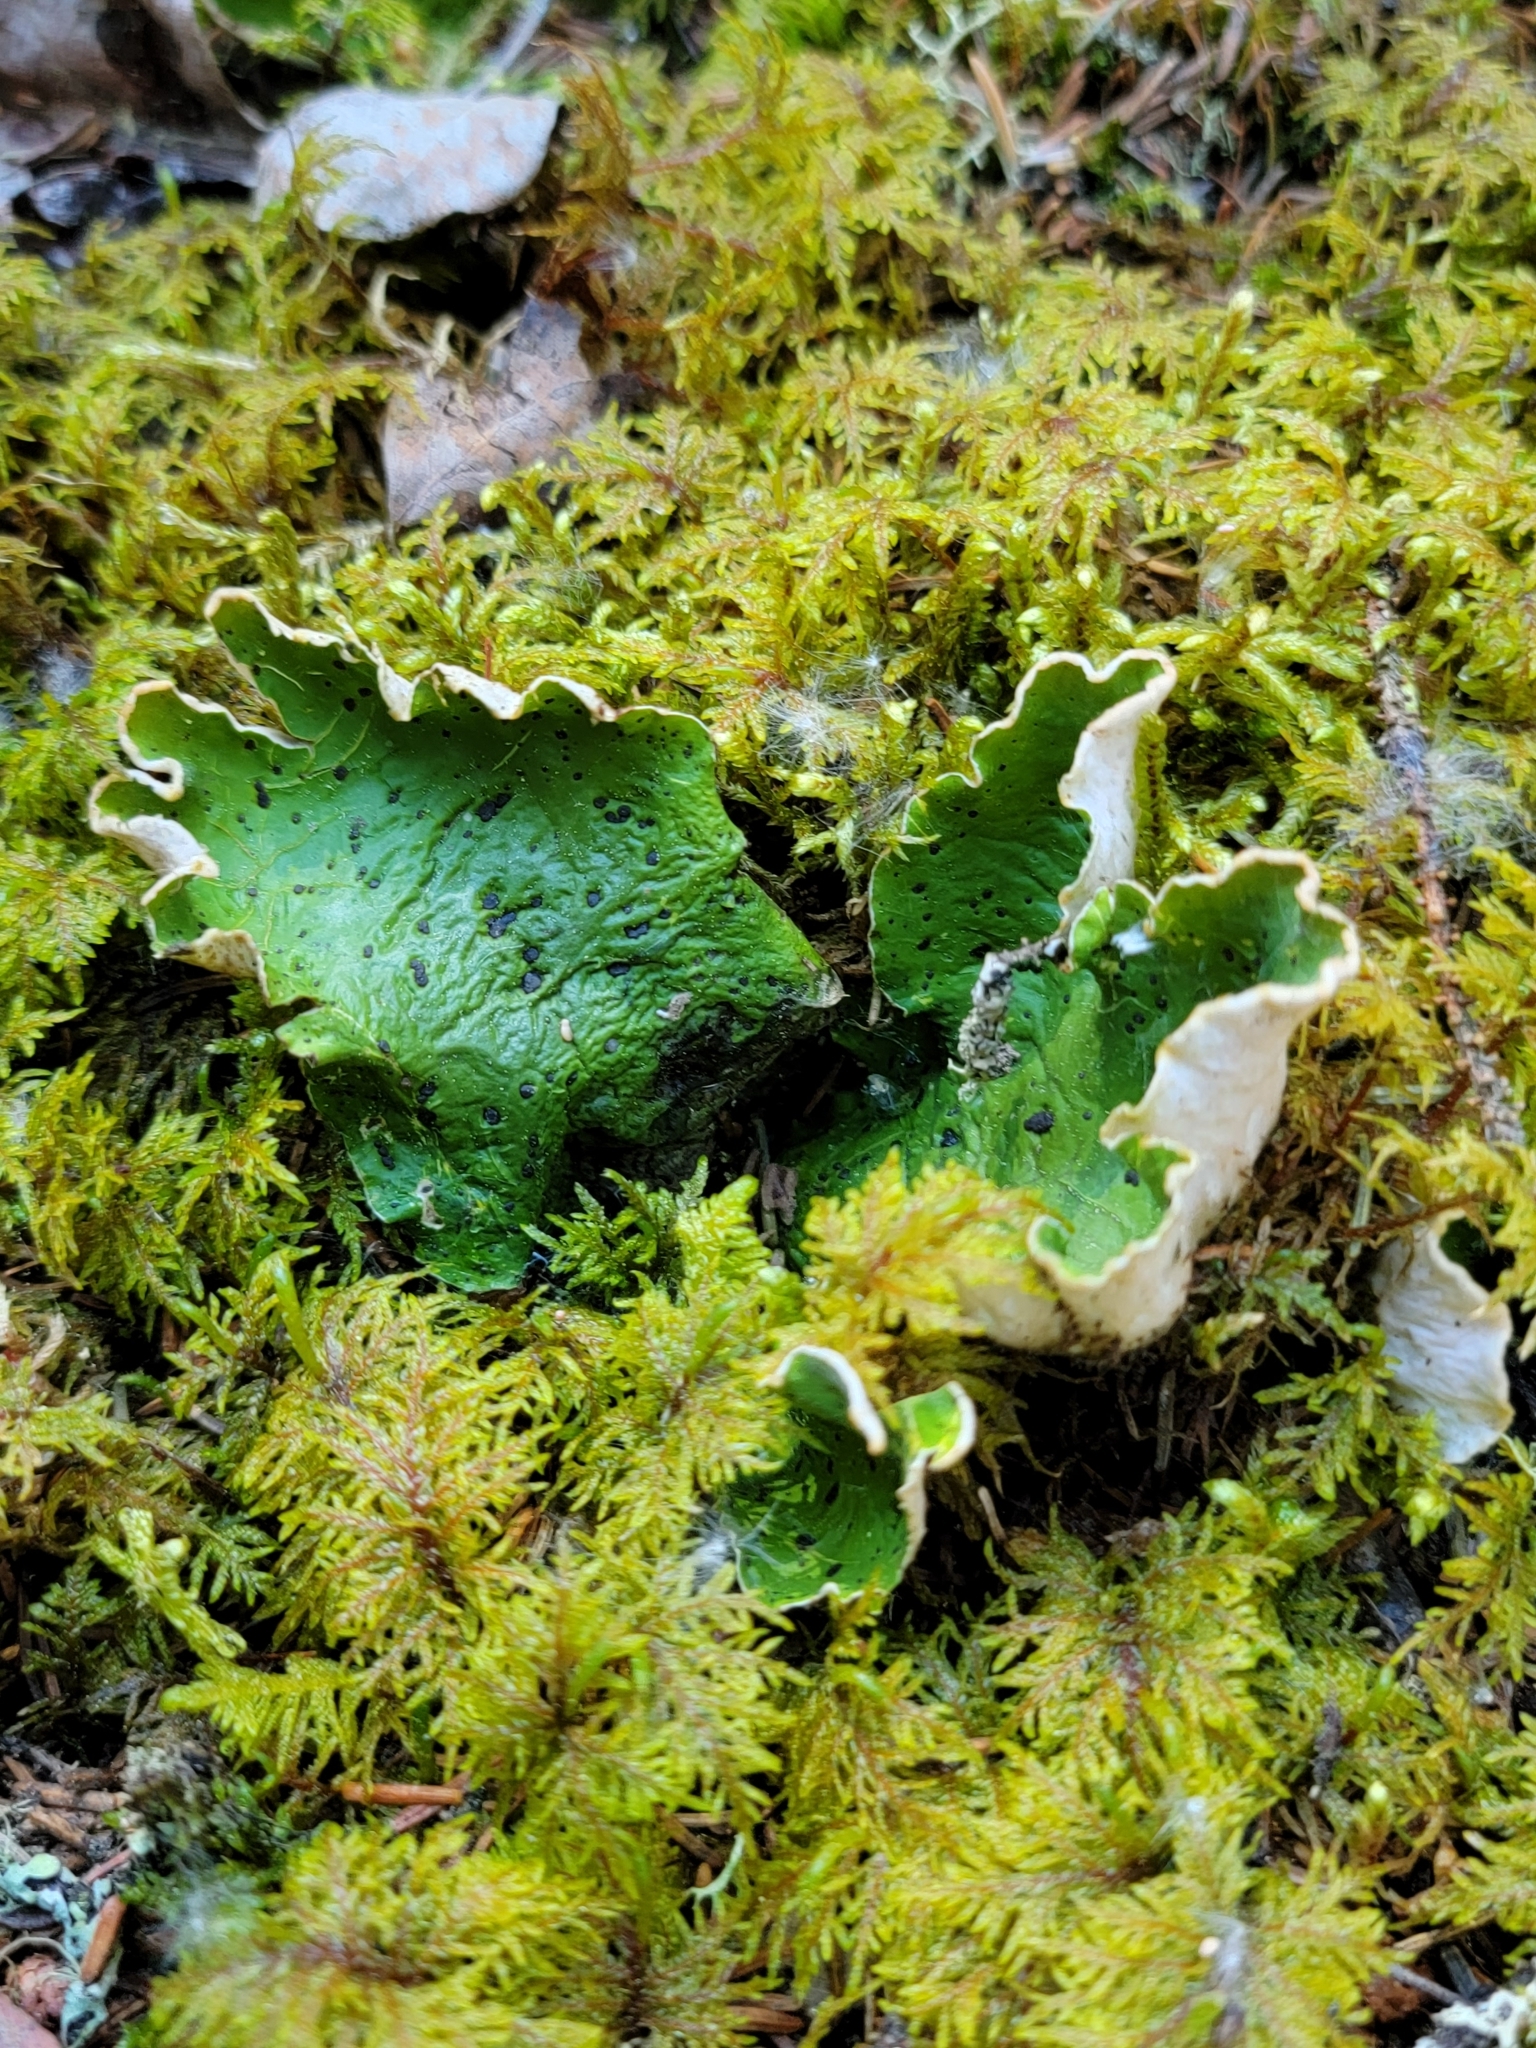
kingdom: Fungi
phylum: Ascomycota
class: Lecanoromycetes
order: Peltigerales
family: Peltigeraceae
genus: Peltigera
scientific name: Peltigera aphthosa
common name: Common freckle pelt lichen
